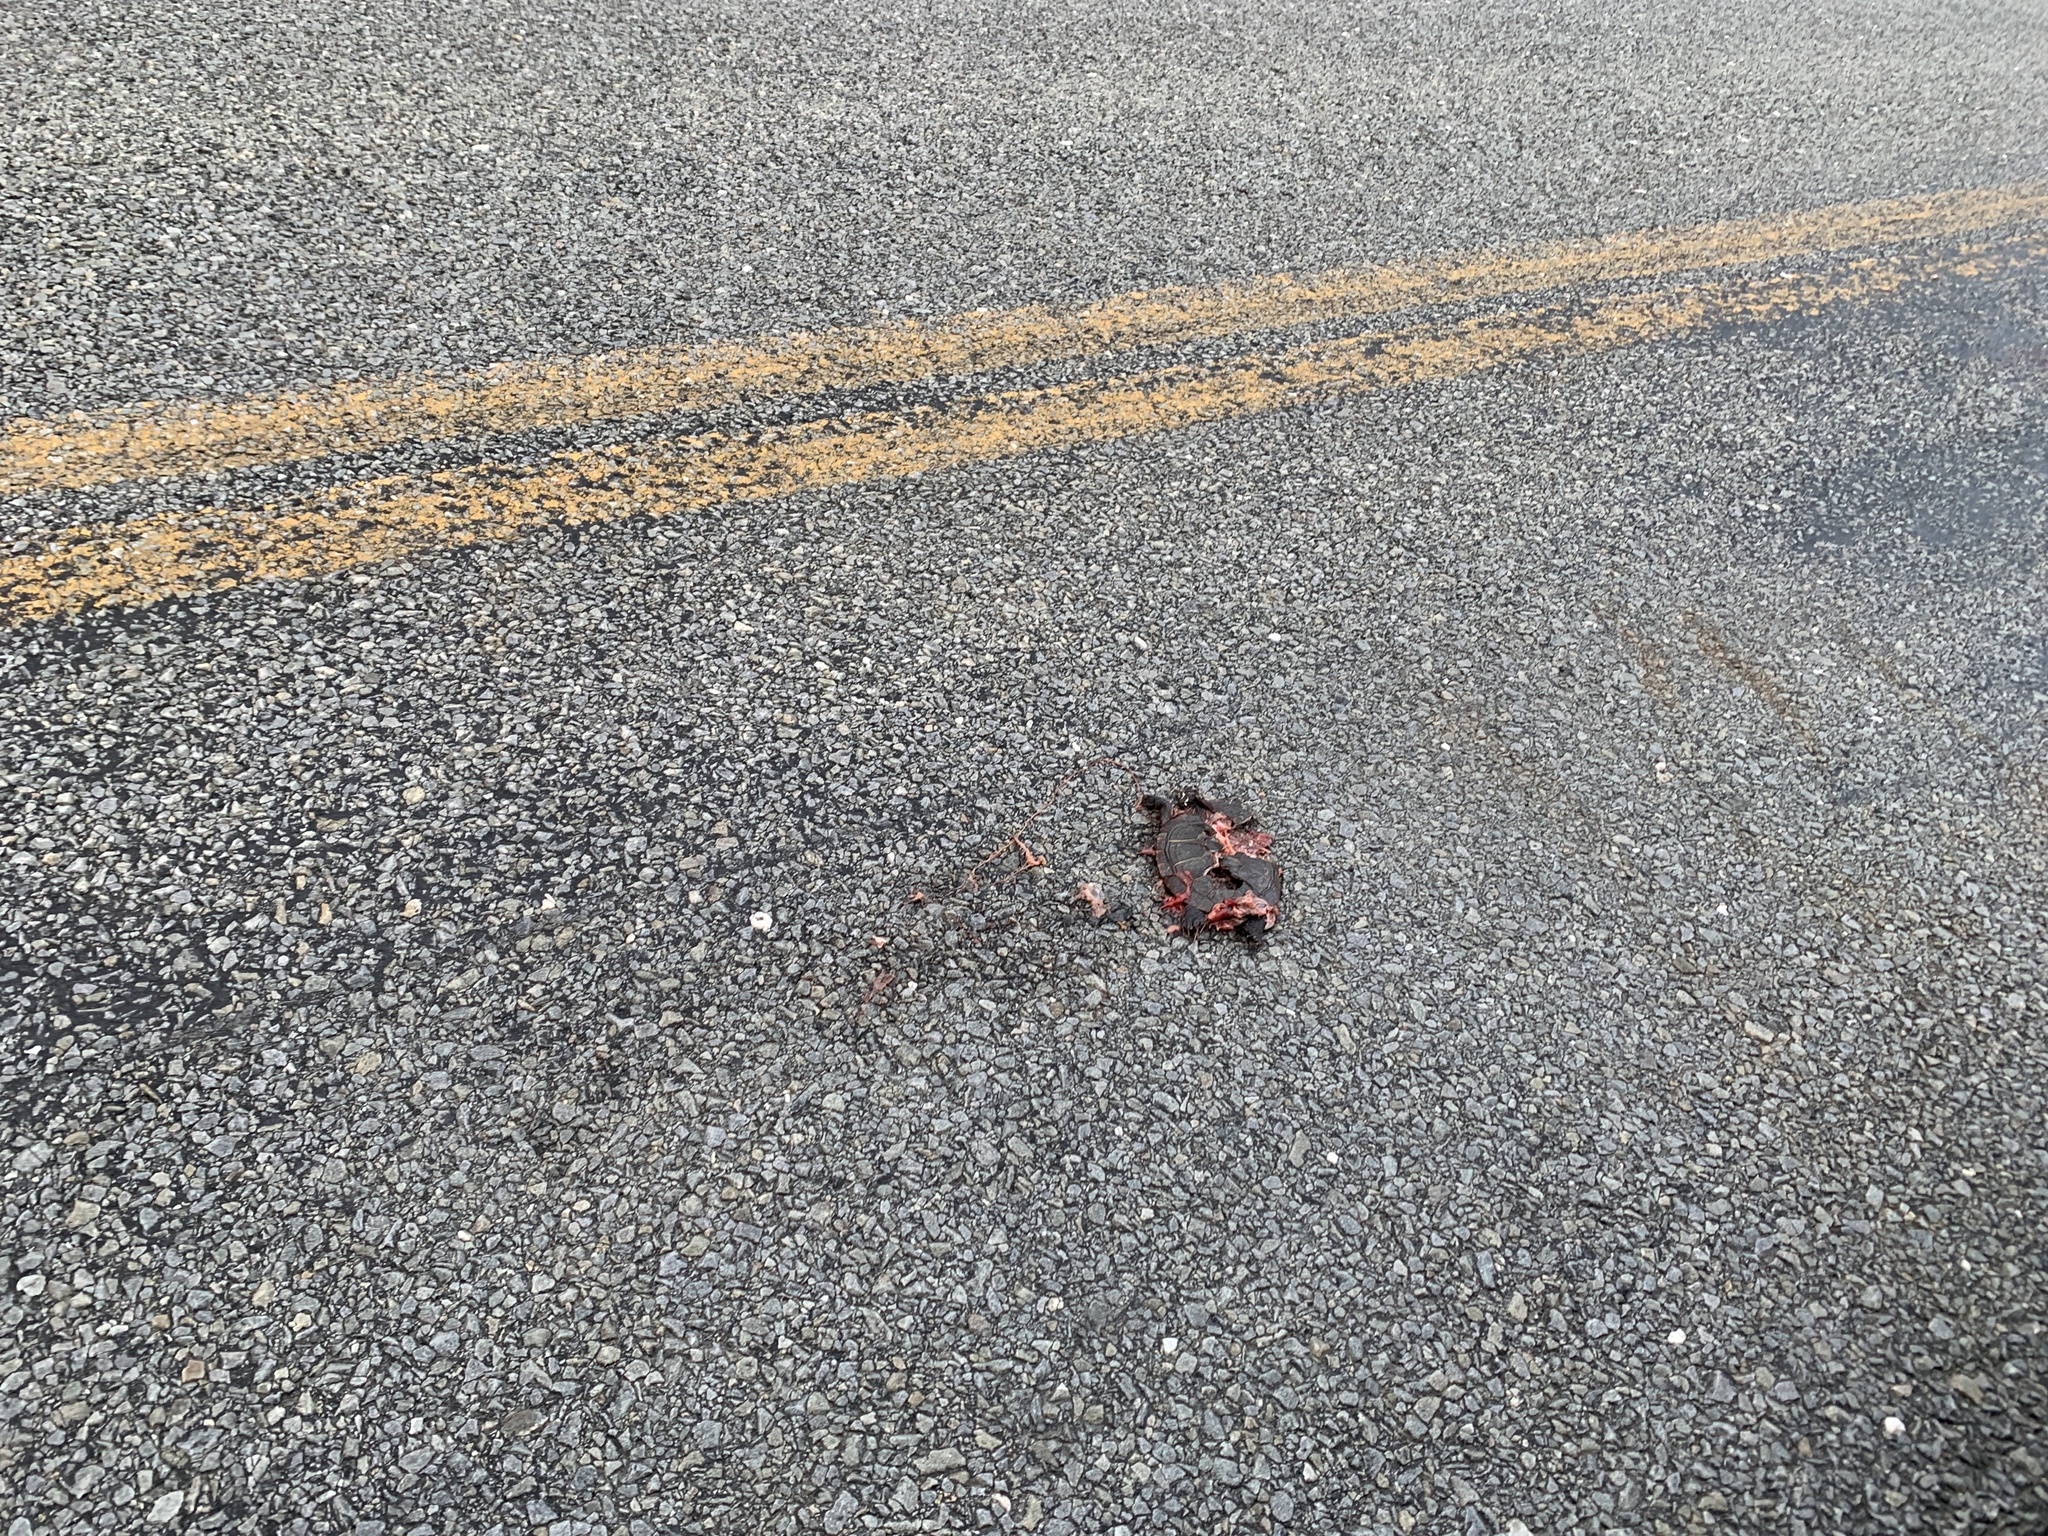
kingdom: Animalia
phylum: Chordata
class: Testudines
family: Emydidae
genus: Chrysemys
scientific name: Chrysemys picta
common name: Painted turtle
